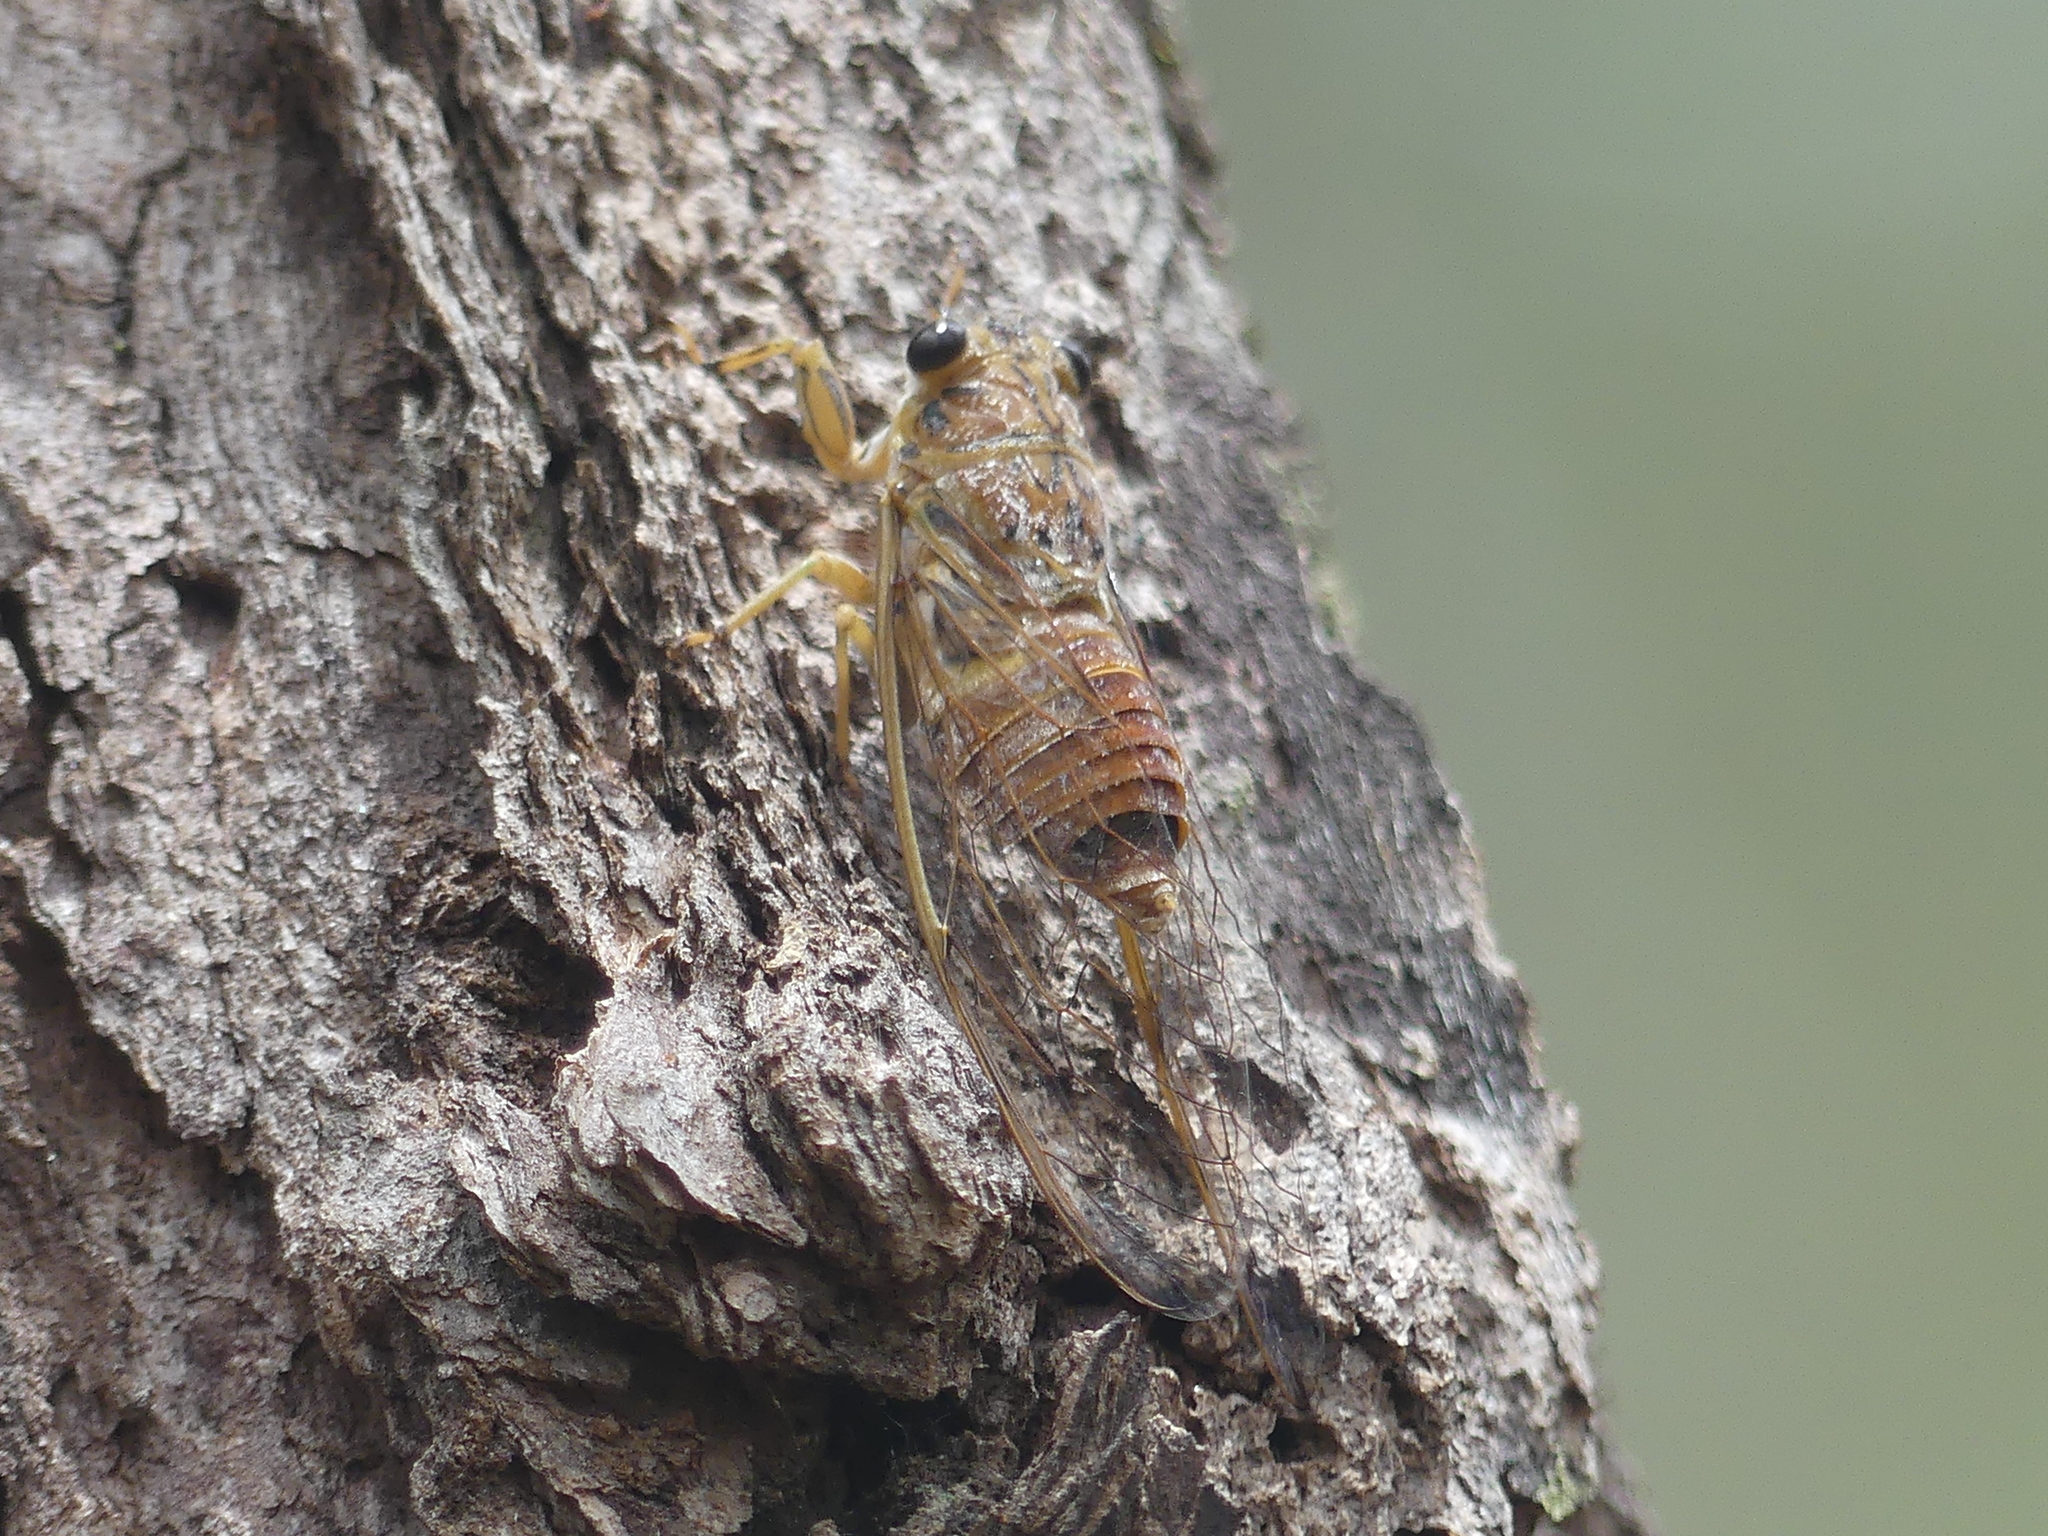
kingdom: Animalia
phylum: Arthropoda
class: Insecta
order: Hemiptera
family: Cicadidae
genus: Tamasa
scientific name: Tamasa tristigma
